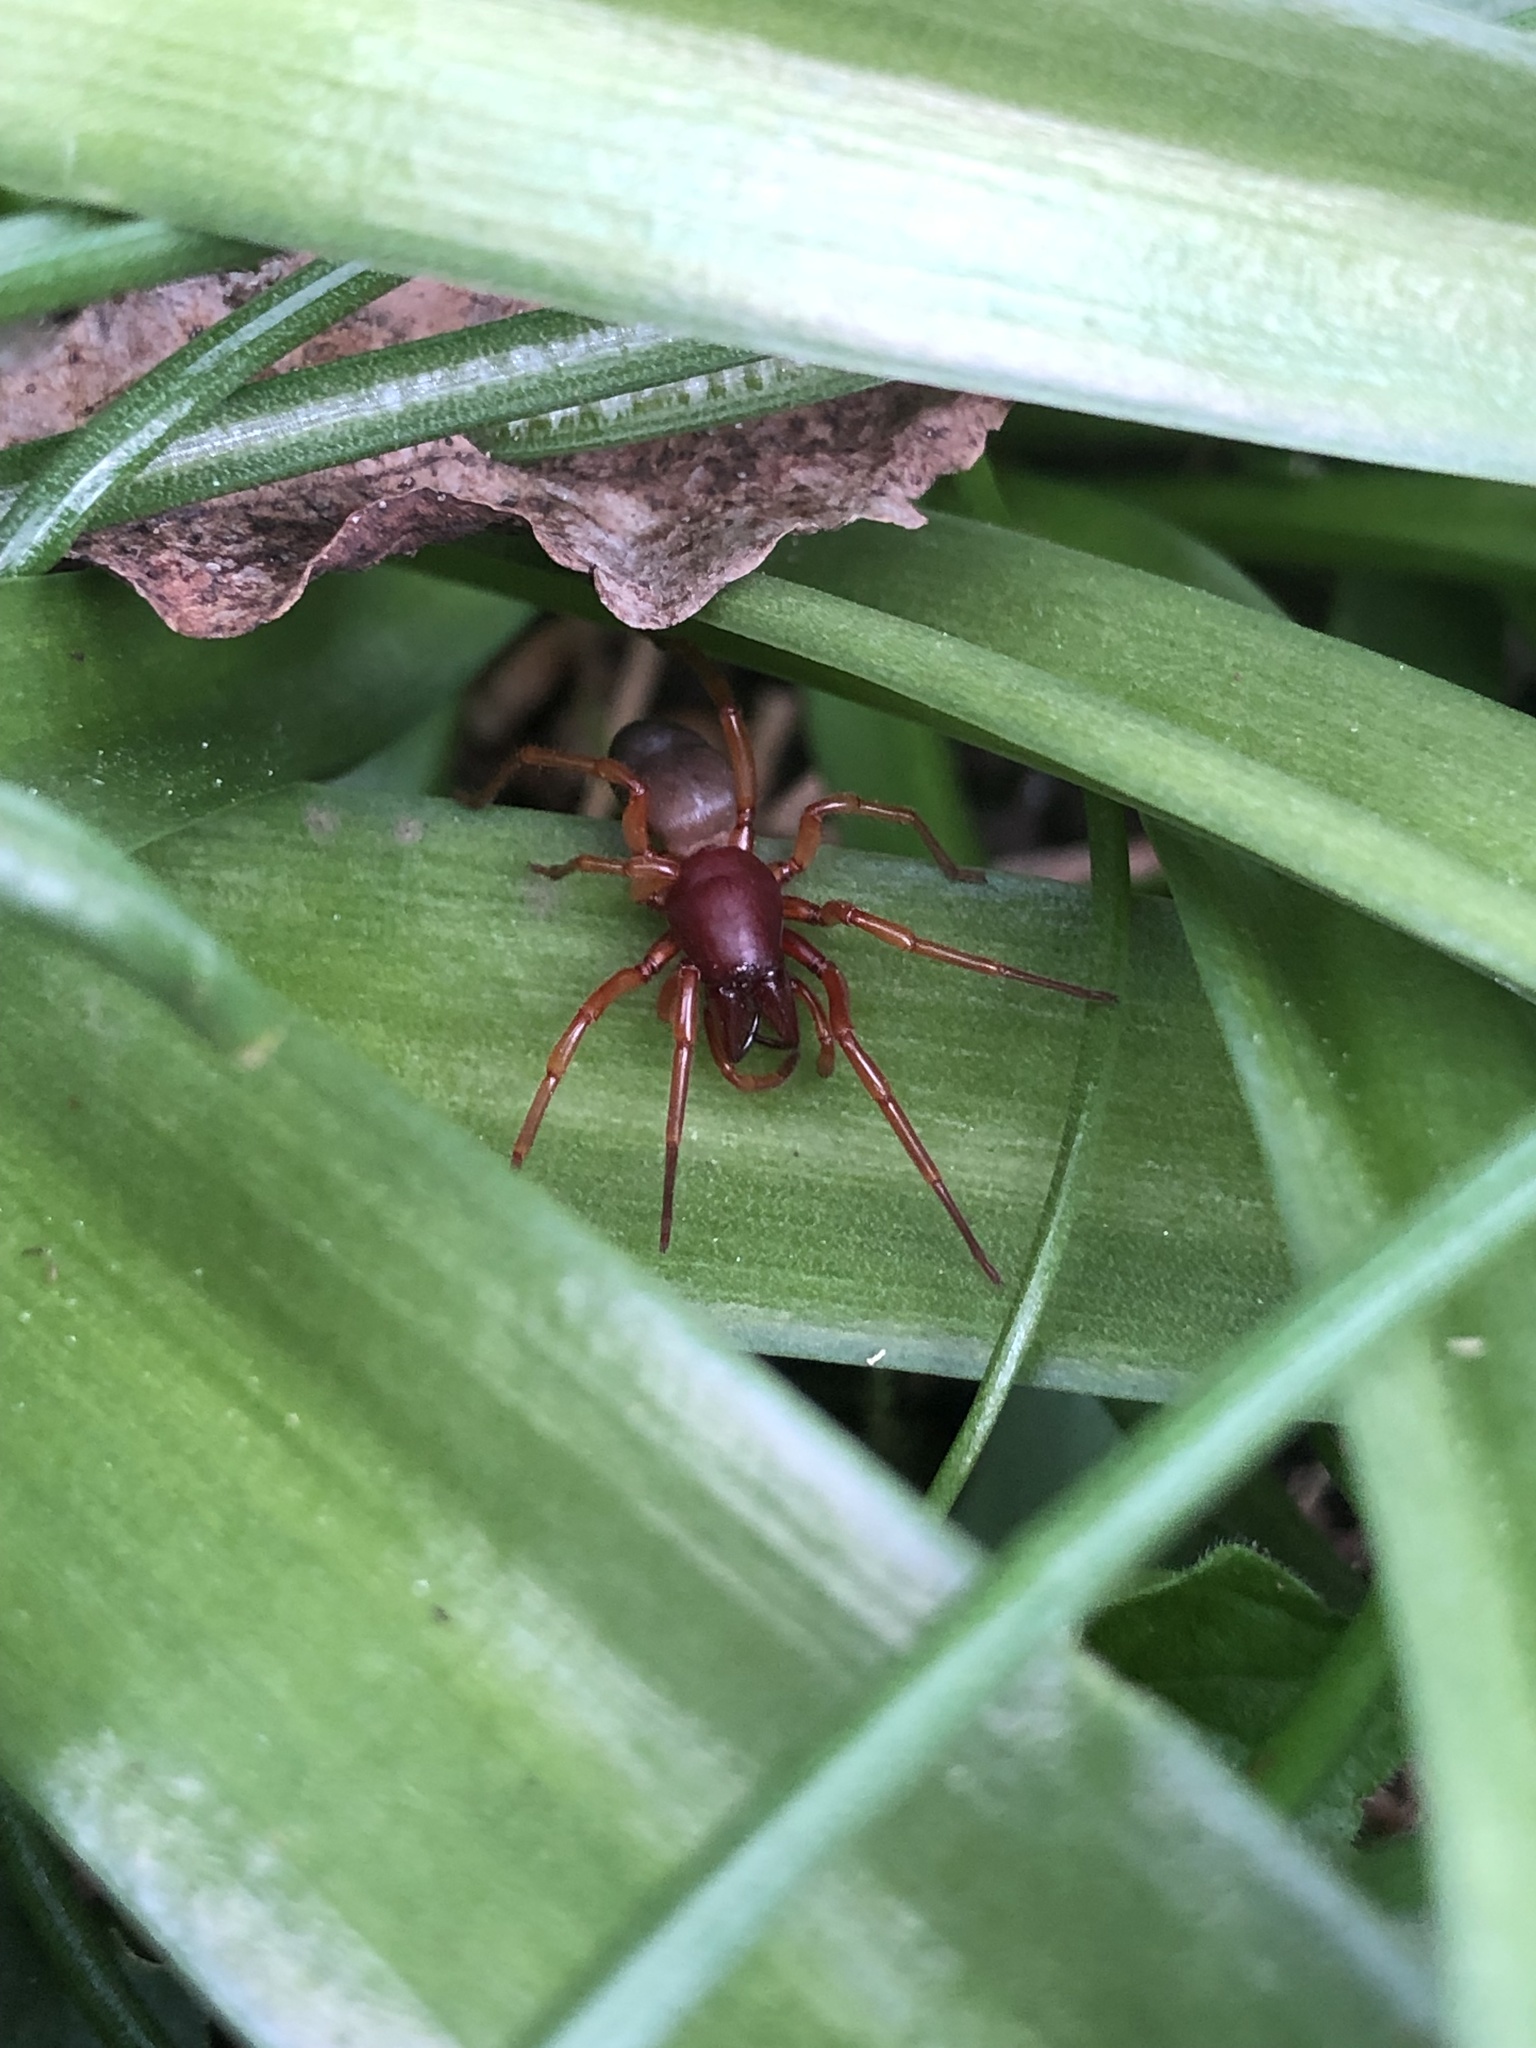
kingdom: Animalia
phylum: Arthropoda
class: Arachnida
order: Araneae
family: Dysderidae
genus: Dysdera
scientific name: Dysdera crocata
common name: Woodlouse spider
